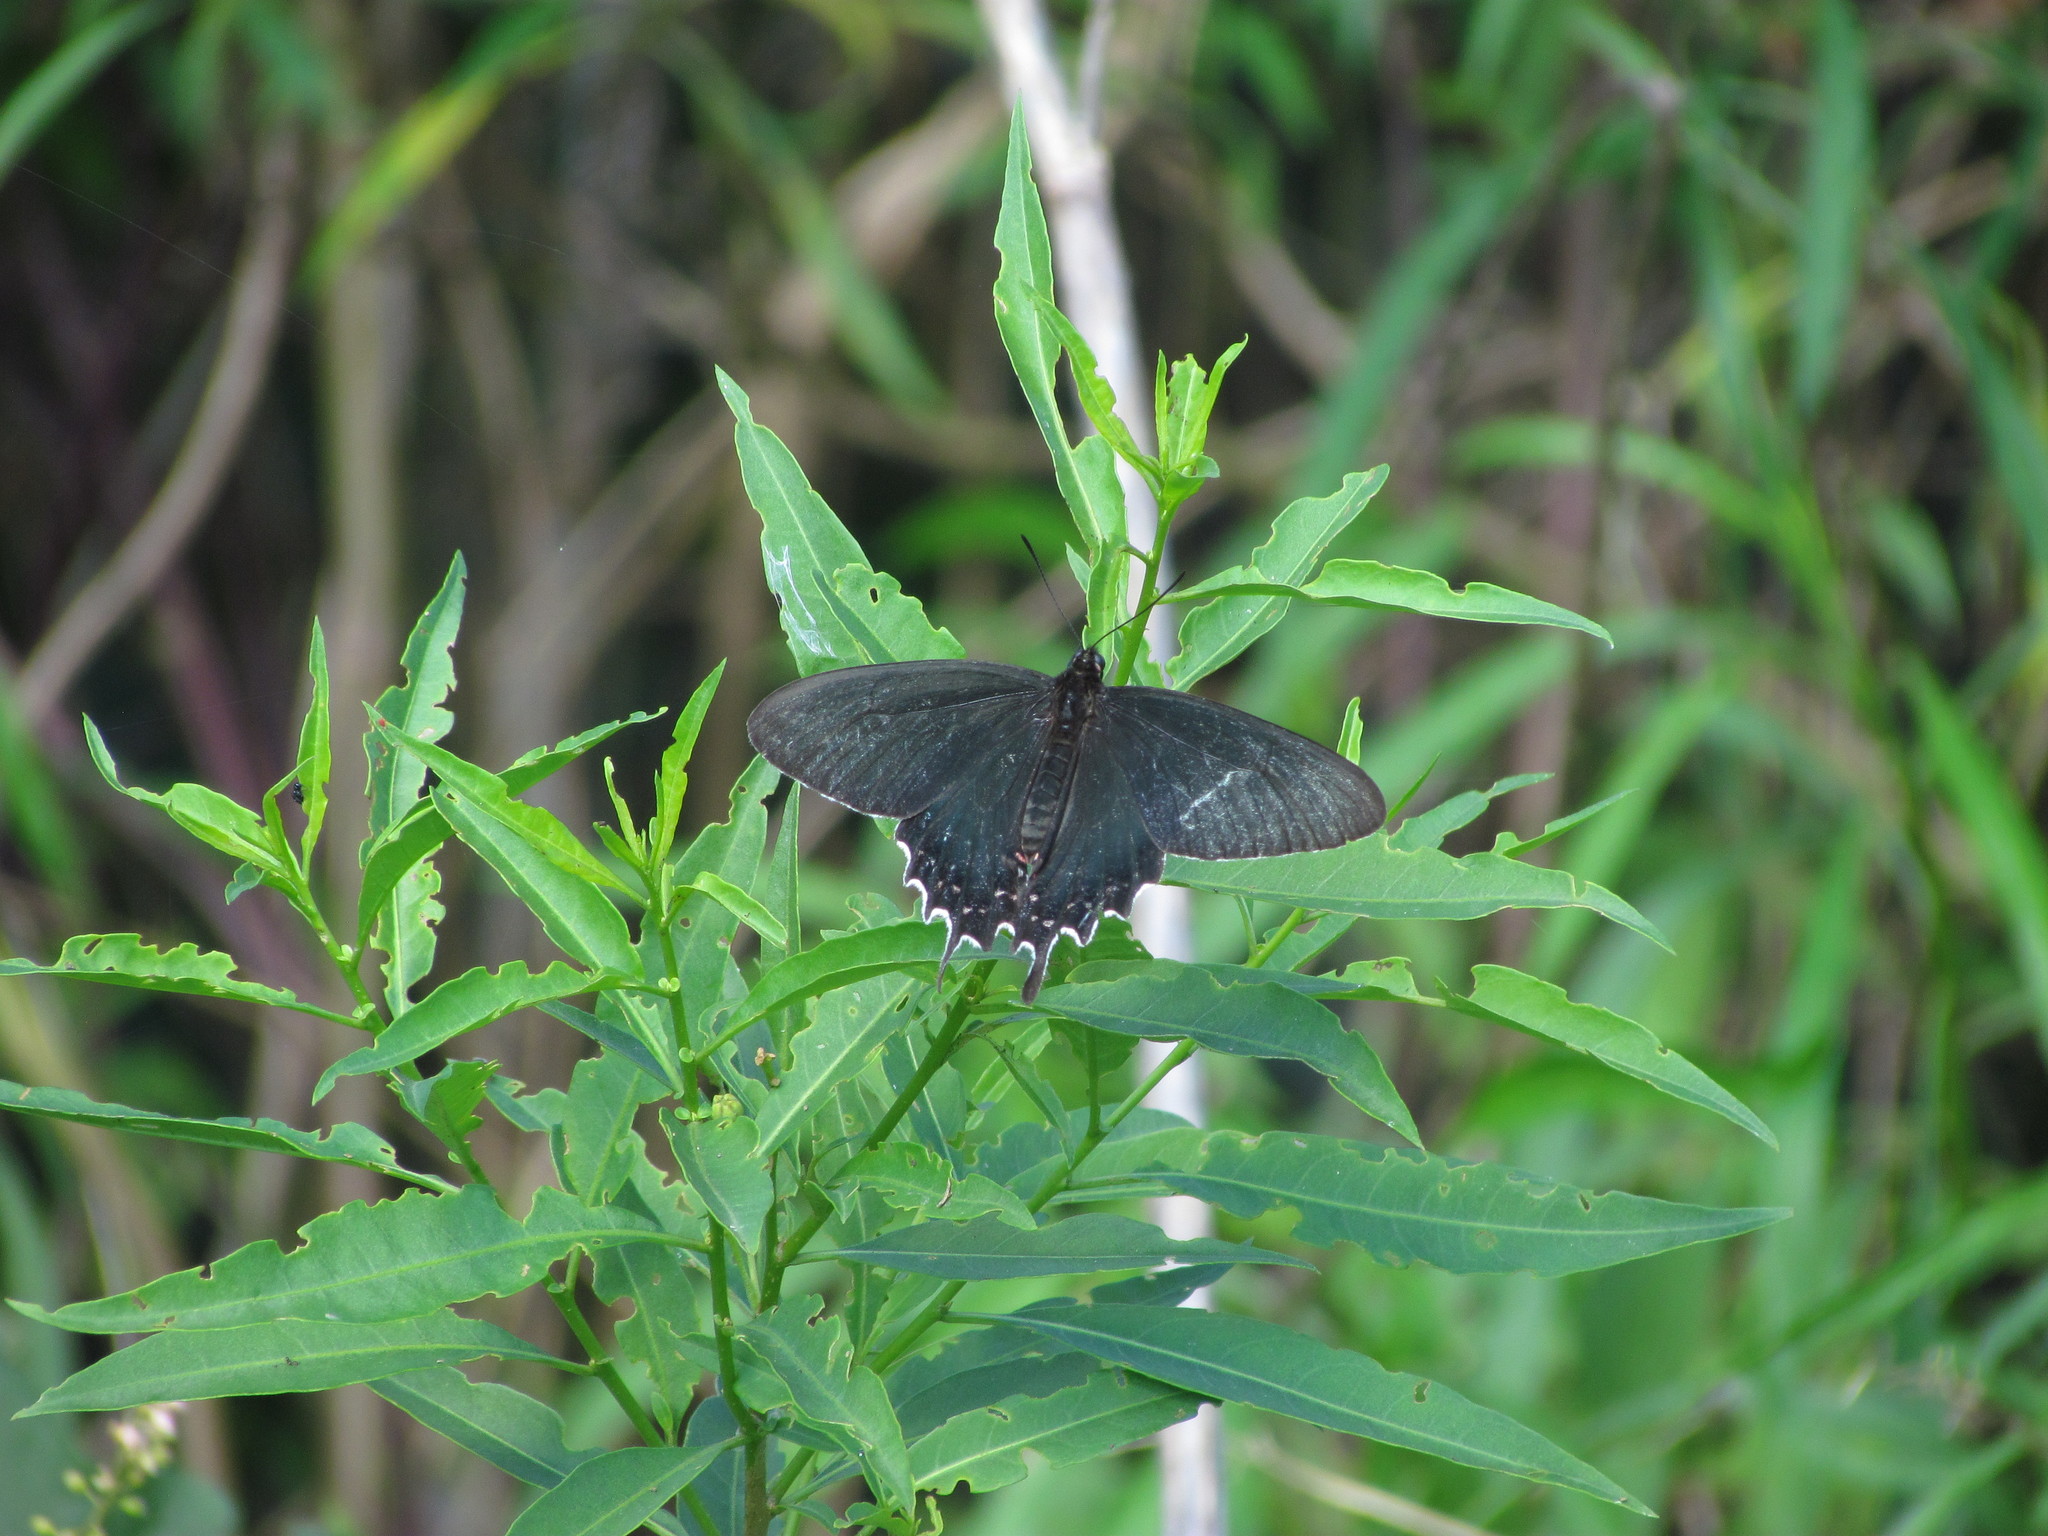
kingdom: Animalia
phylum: Arthropoda
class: Insecta
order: Lepidoptera
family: Papilionidae
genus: Parides
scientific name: Parides bunichus
